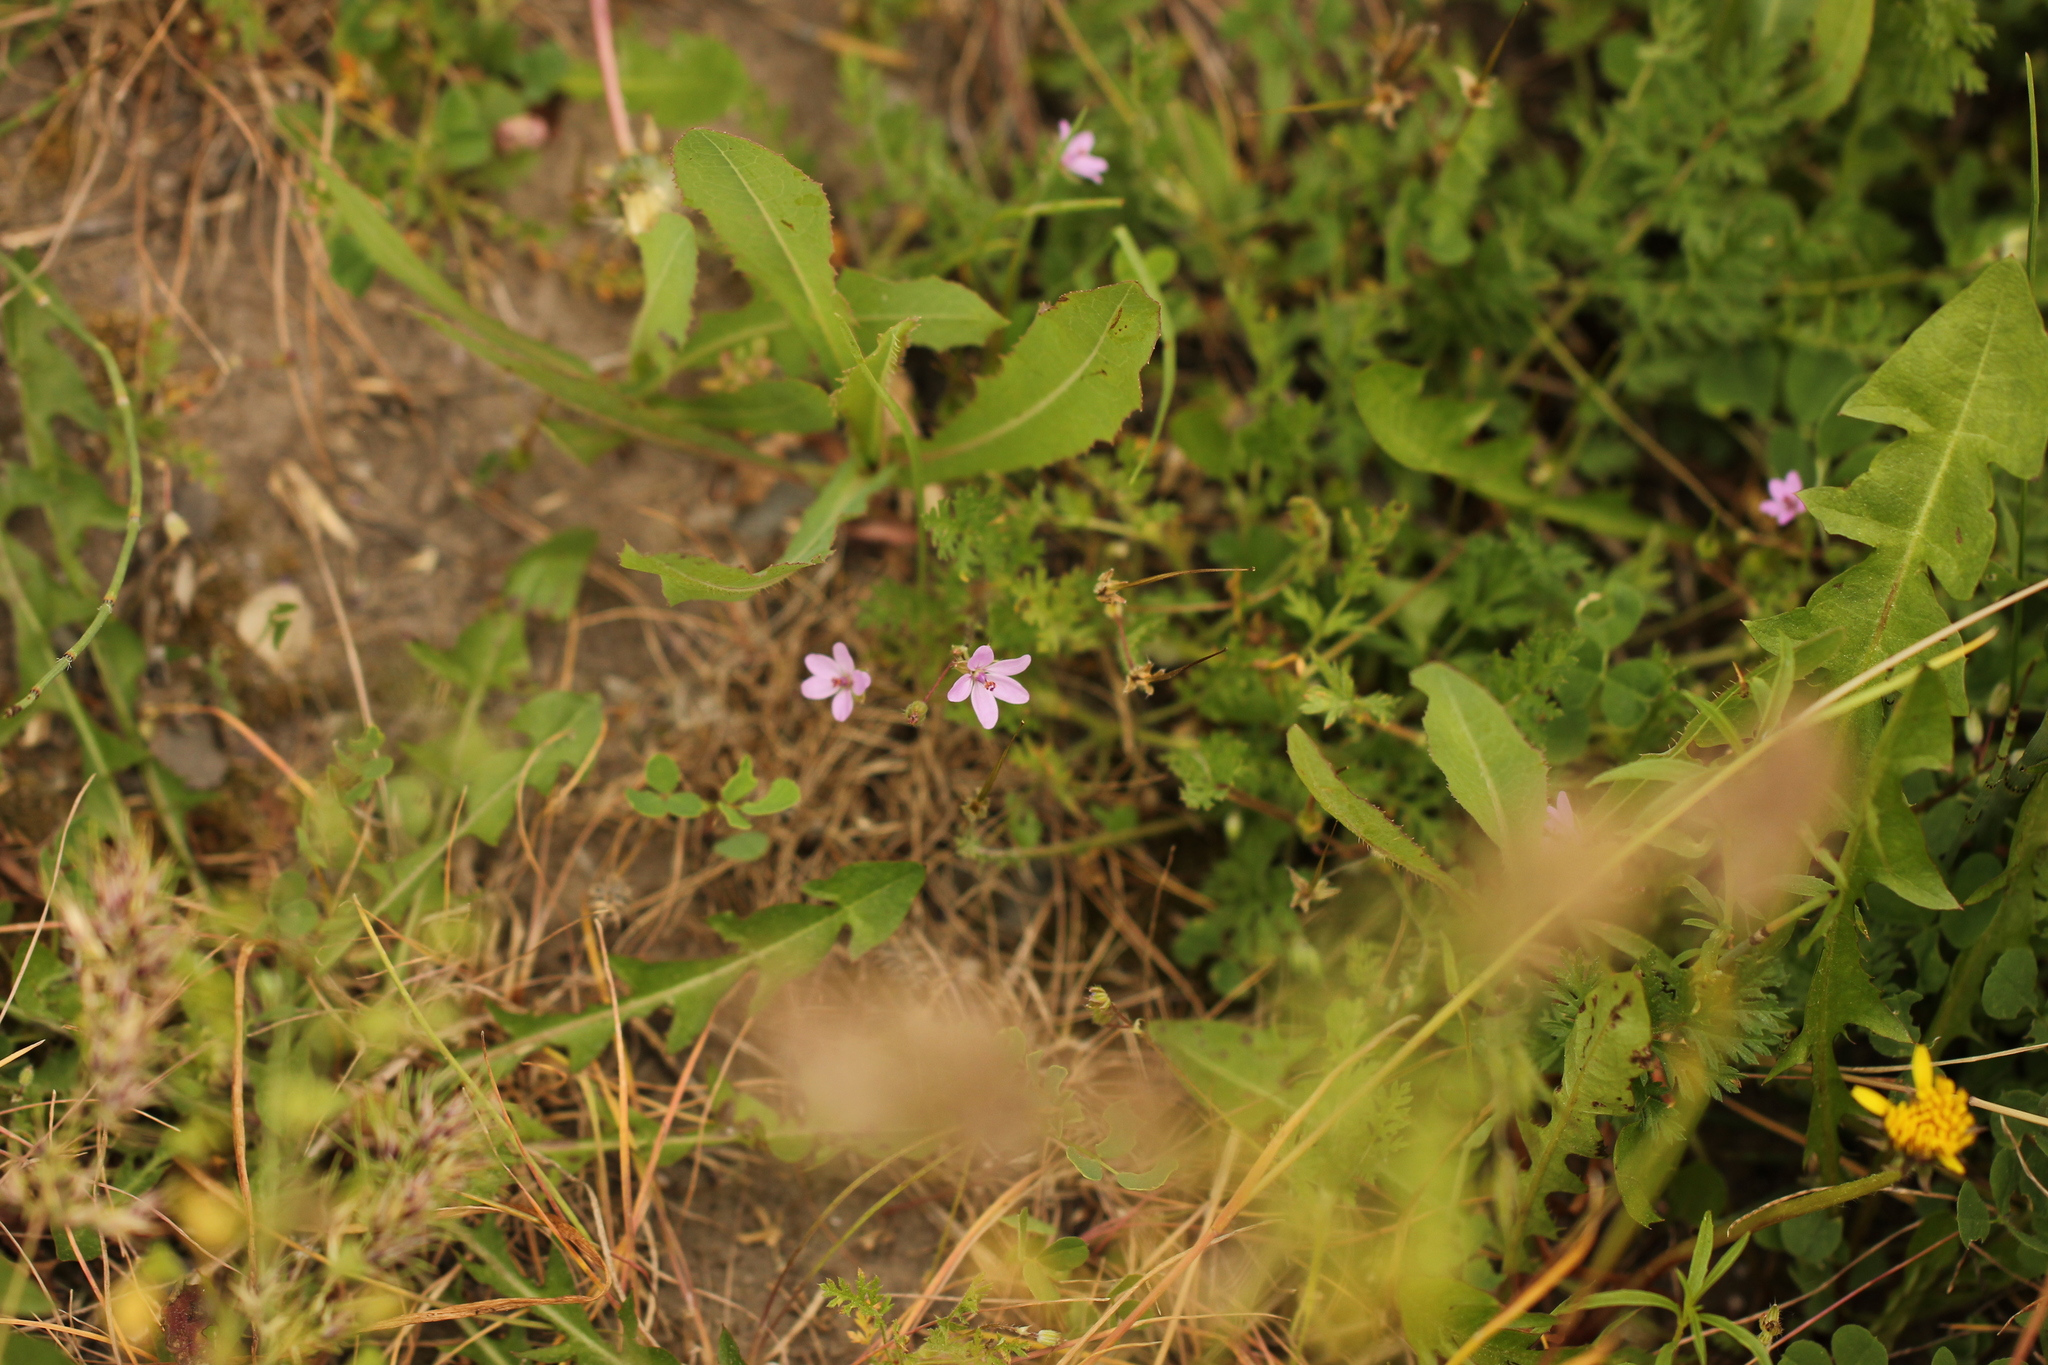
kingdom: Plantae
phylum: Tracheophyta
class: Magnoliopsida
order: Geraniales
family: Geraniaceae
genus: Erodium
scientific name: Erodium cicutarium
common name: Common stork's-bill
